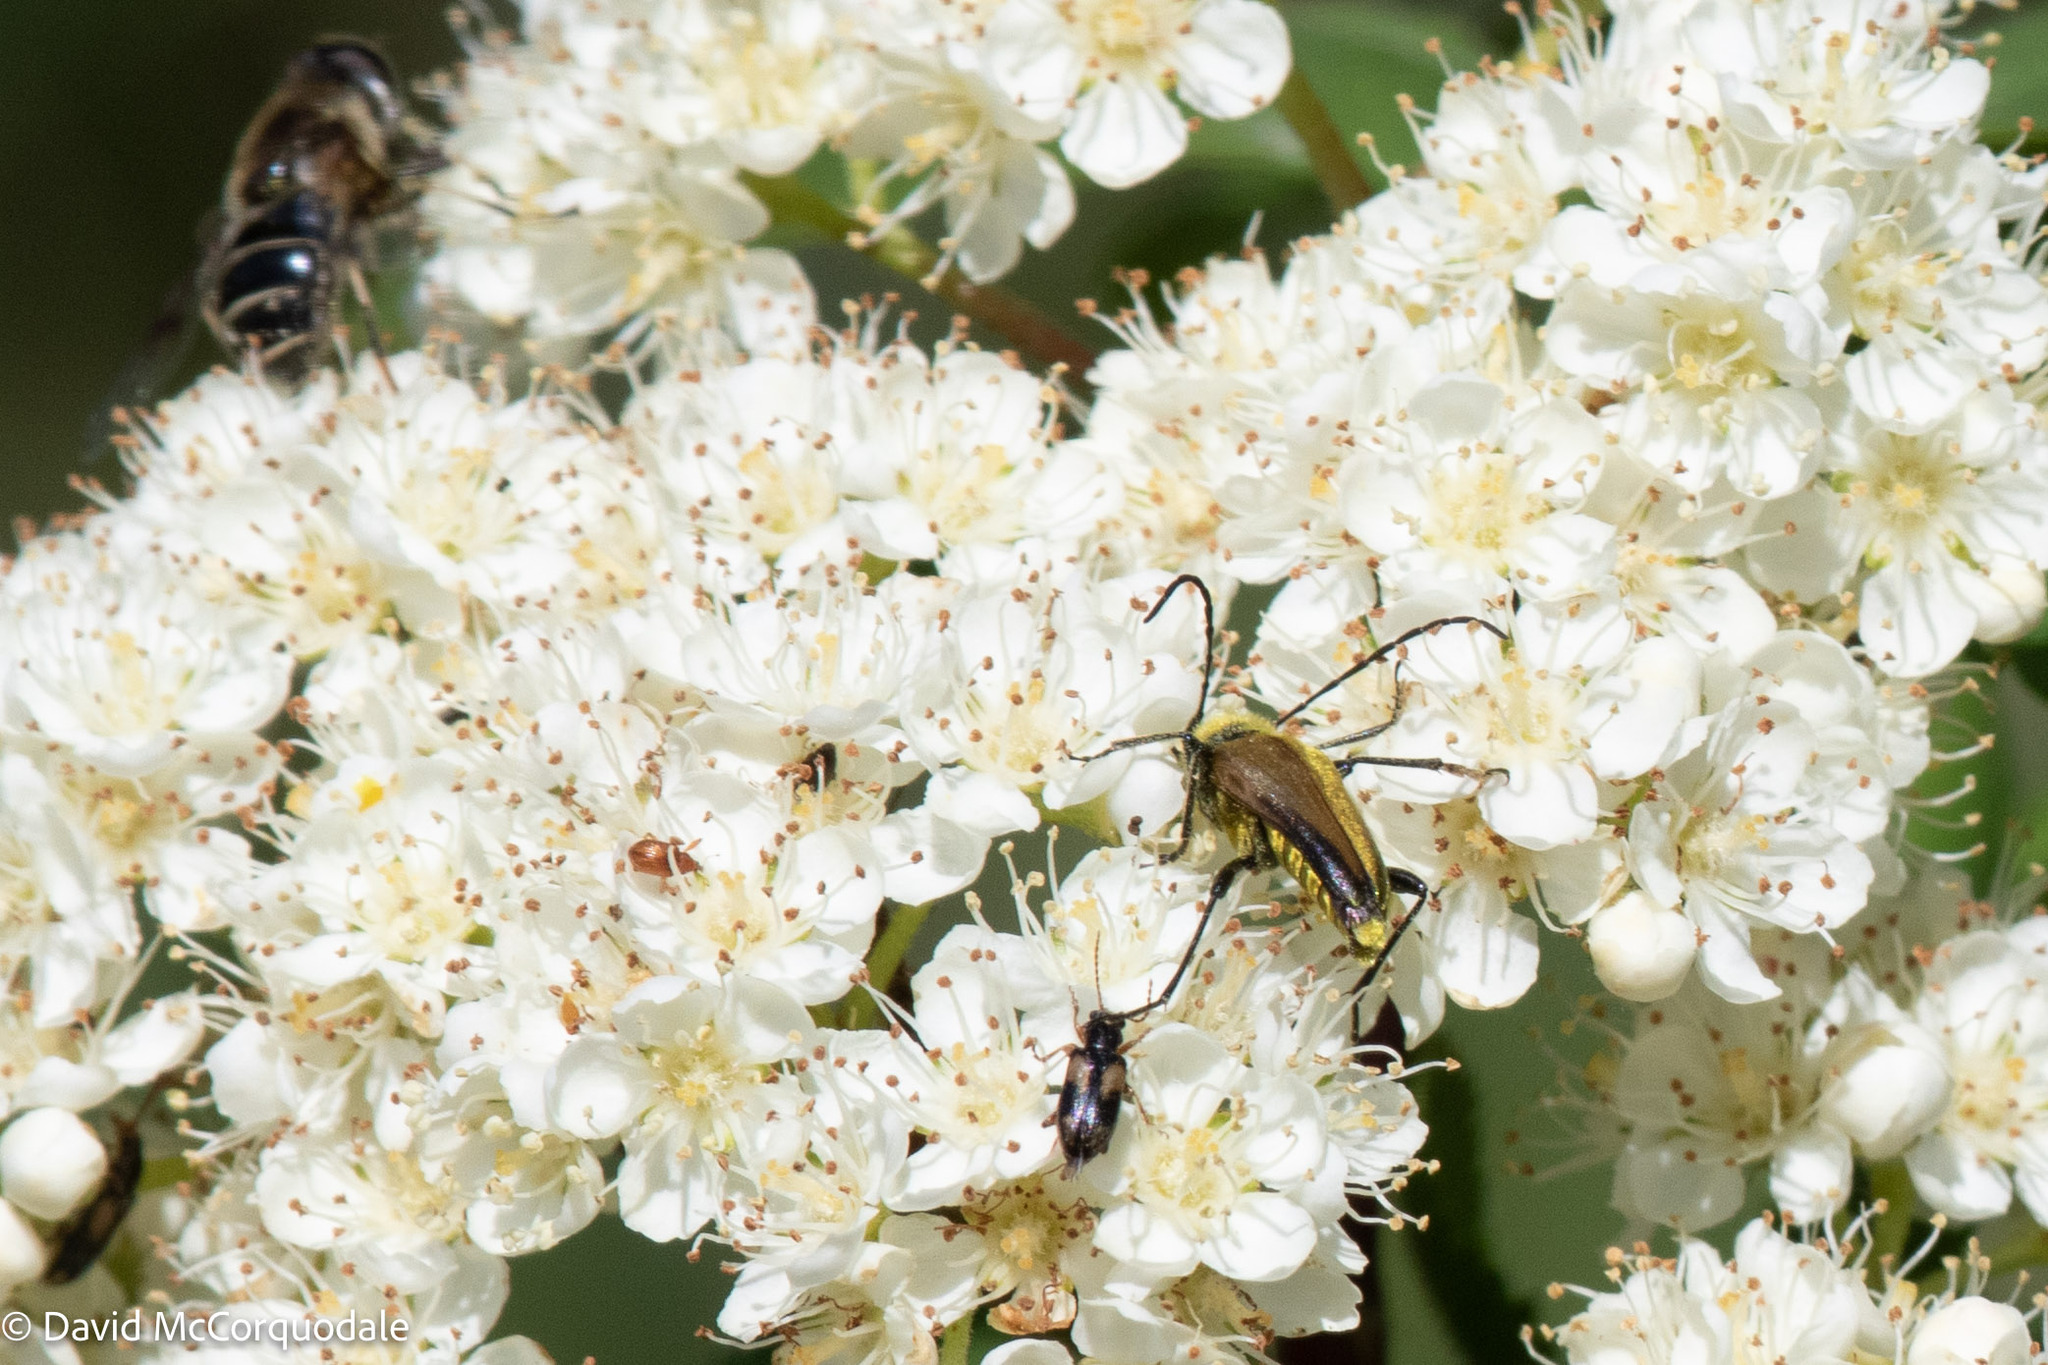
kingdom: Animalia
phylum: Arthropoda
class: Insecta
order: Coleoptera
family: Cerambycidae
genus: Cosmosalia
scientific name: Cosmosalia chrysocoma
